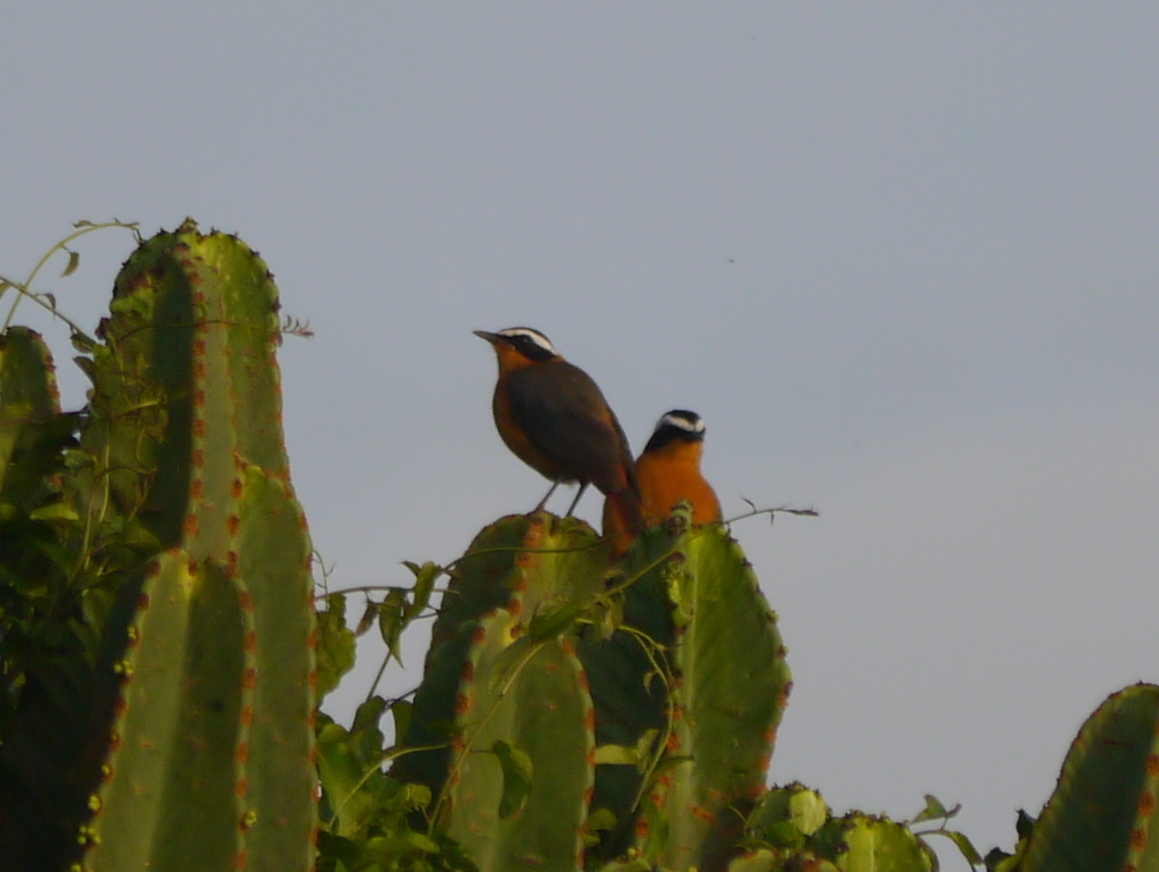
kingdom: Animalia
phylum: Chordata
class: Aves
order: Passeriformes
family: Muscicapidae
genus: Cossypha
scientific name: Cossypha heuglini
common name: White-browed robin-chat
